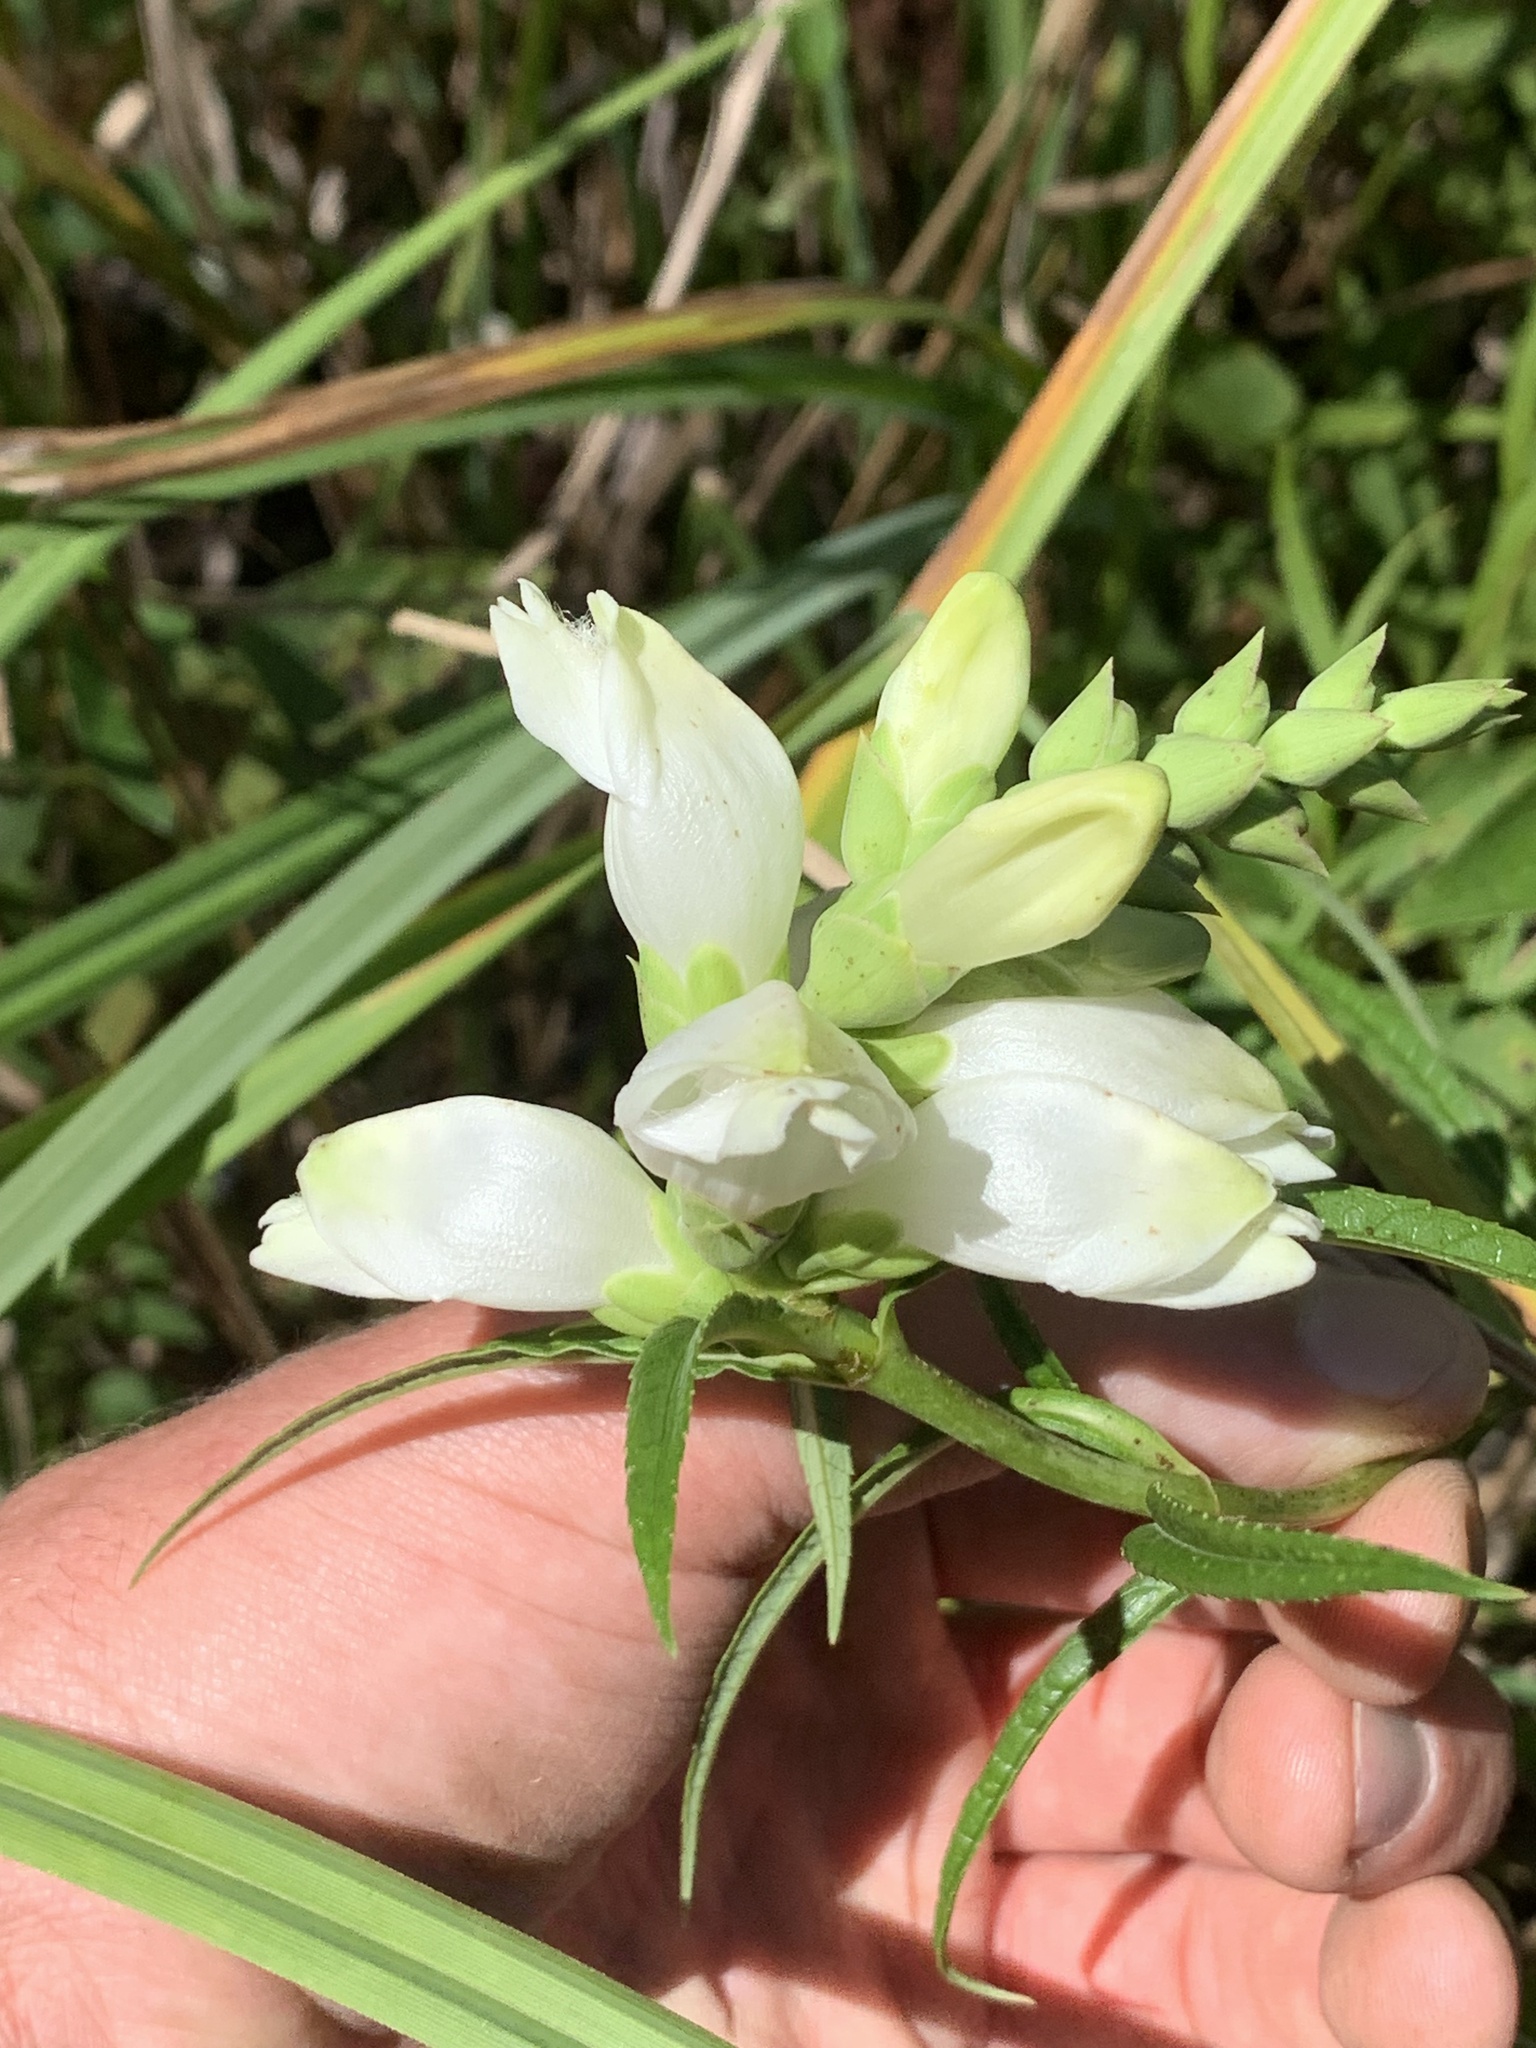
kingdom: Plantae
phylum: Tracheophyta
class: Magnoliopsida
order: Lamiales
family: Plantaginaceae
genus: Chelone
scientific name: Chelone glabra
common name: Snakehead
